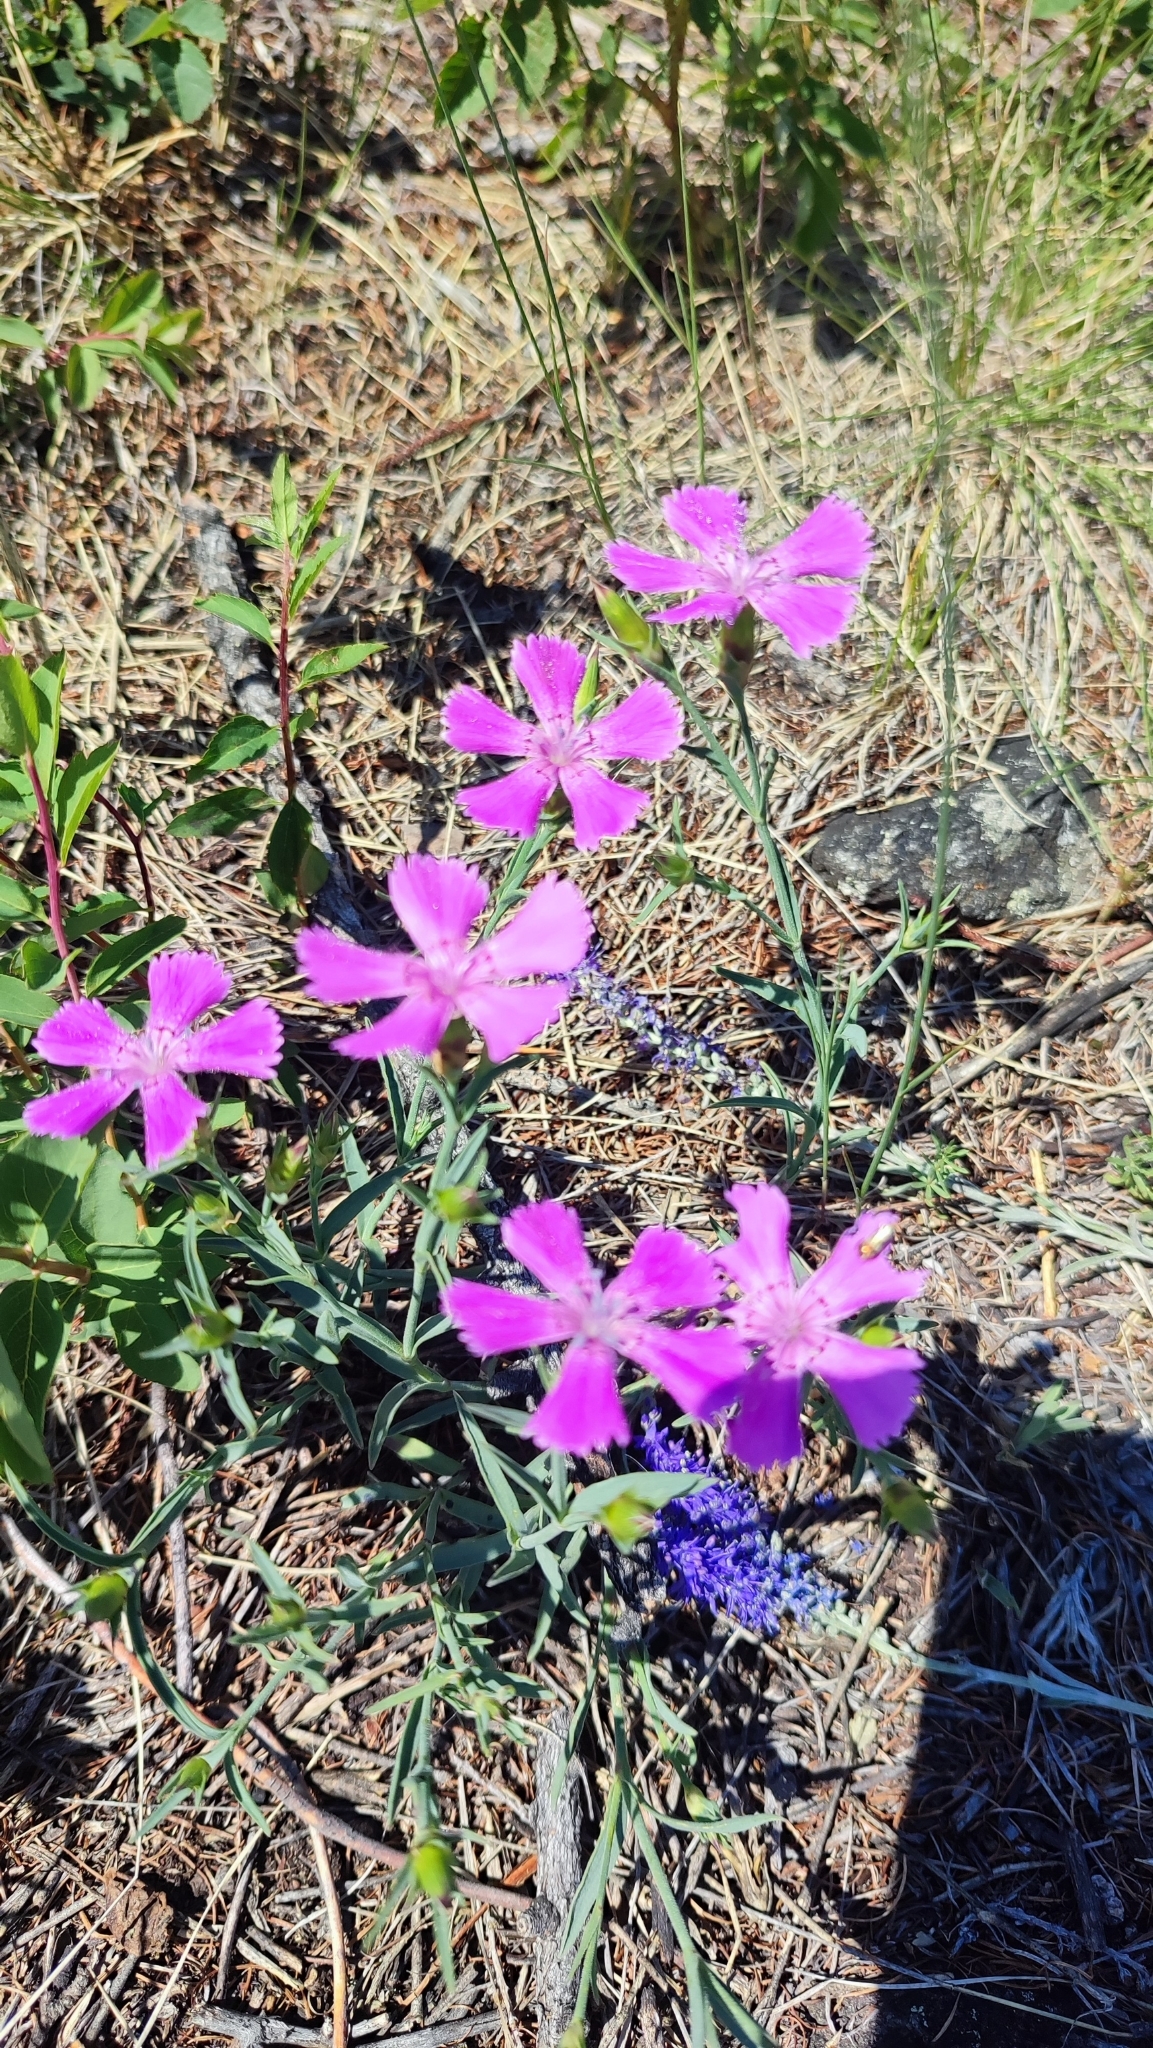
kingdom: Plantae
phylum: Tracheophyta
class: Magnoliopsida
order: Caryophyllales
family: Caryophyllaceae
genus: Dianthus
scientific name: Dianthus chinensis
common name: Rainbow pink
